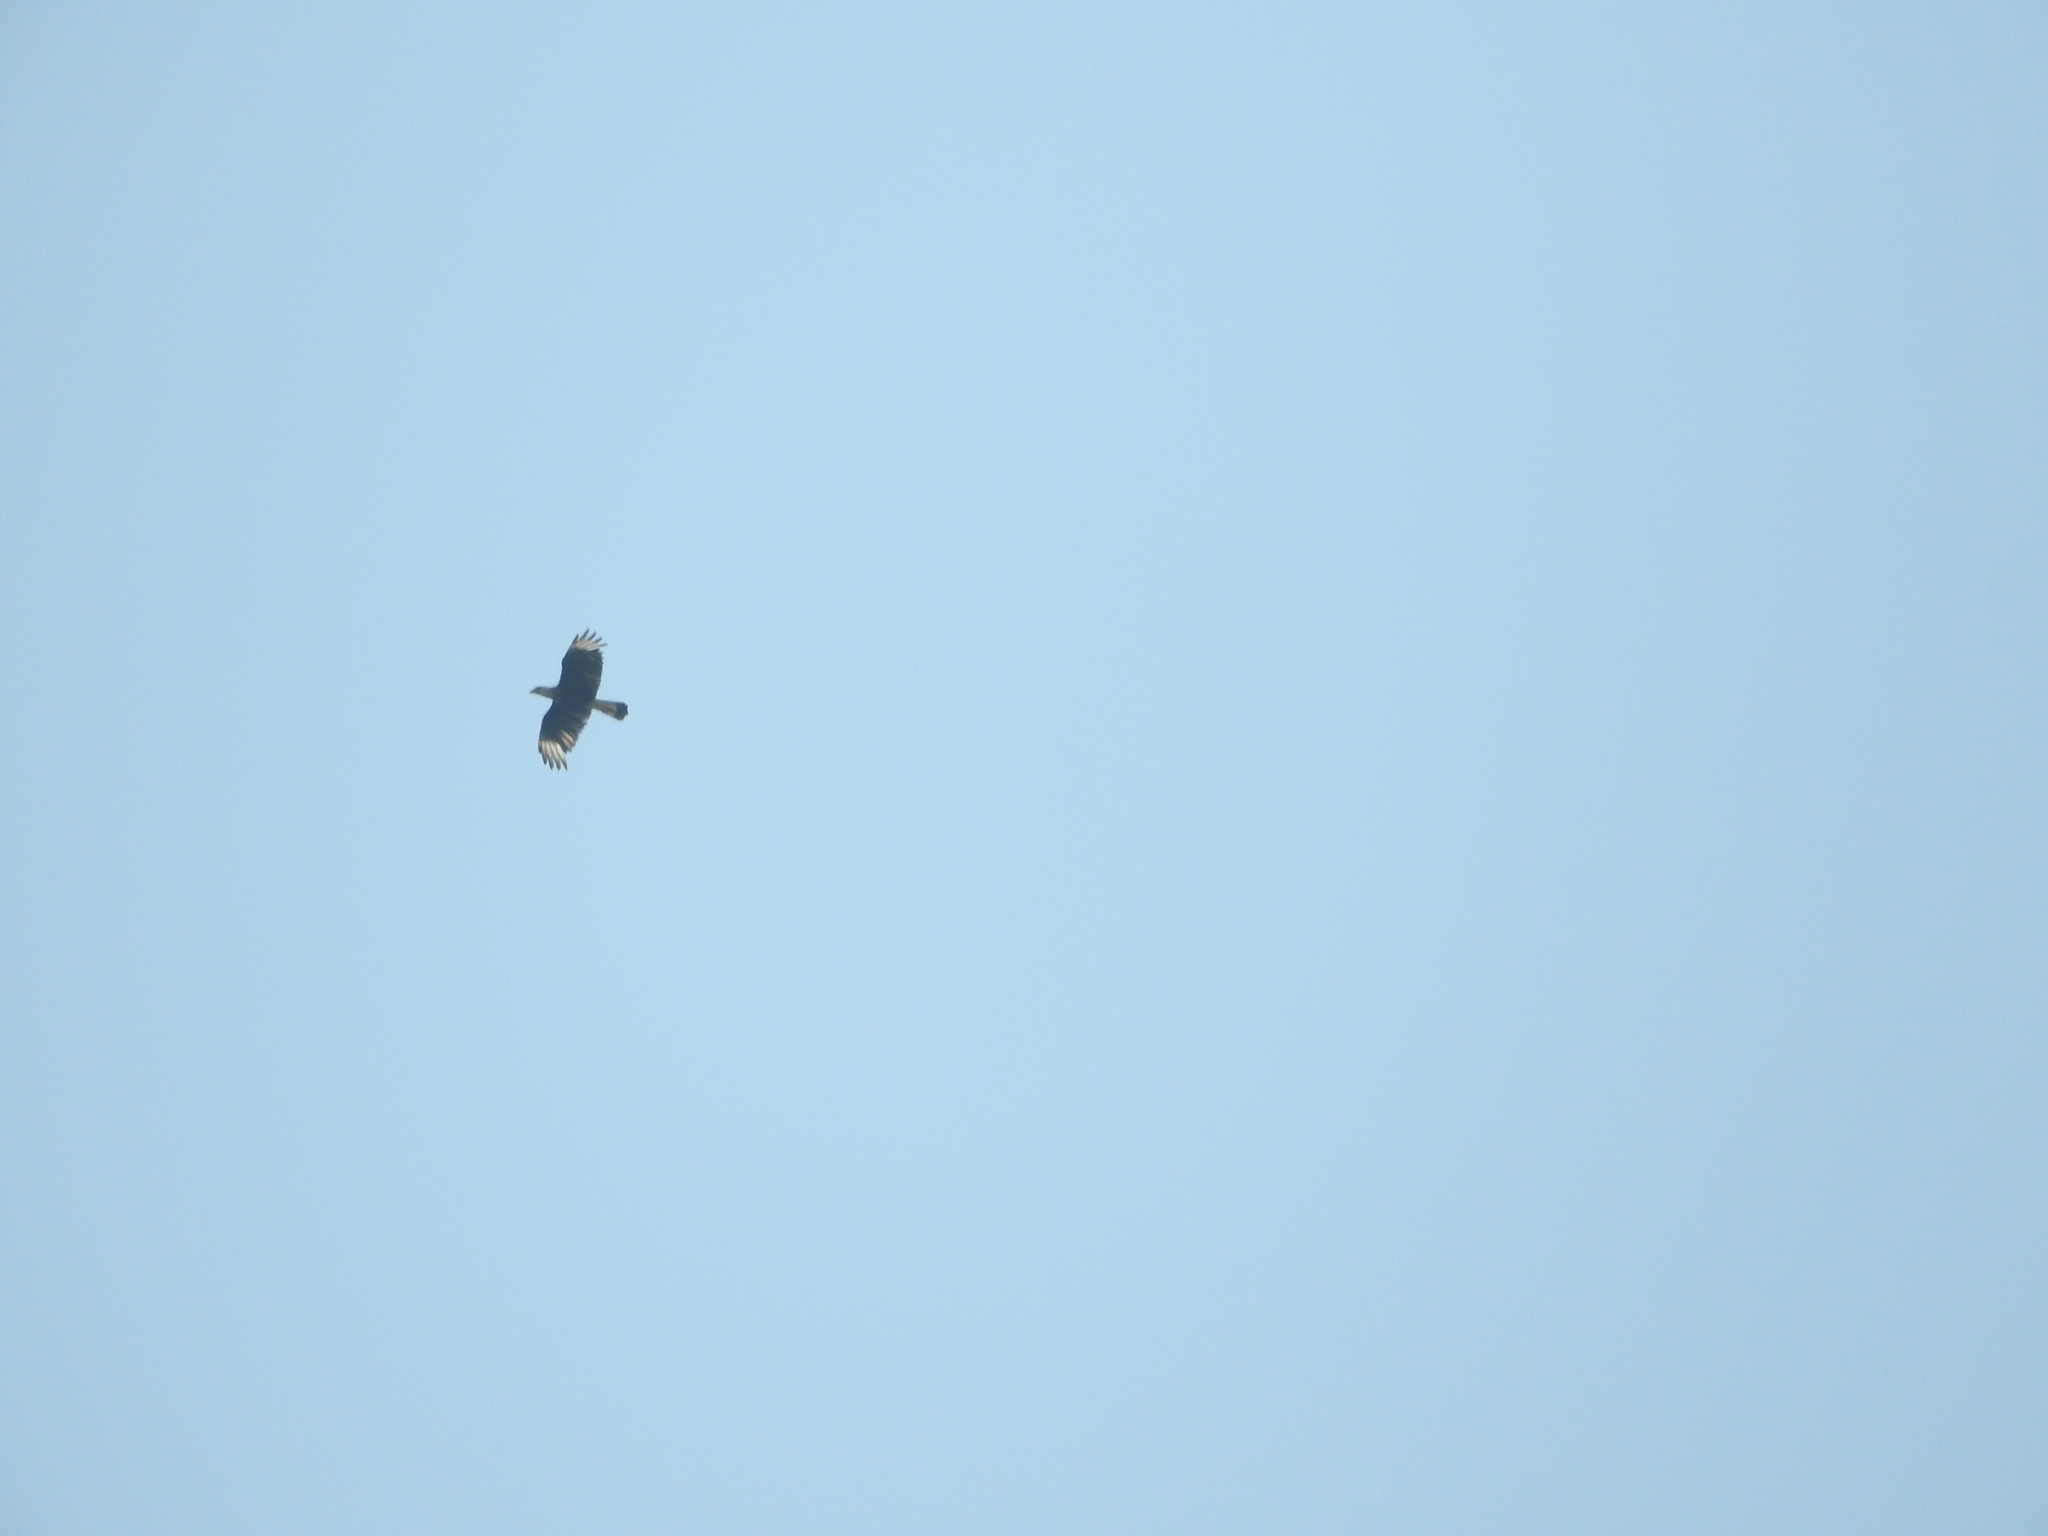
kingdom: Animalia
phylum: Chordata
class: Aves
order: Falconiformes
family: Falconidae
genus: Caracara
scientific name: Caracara plancus
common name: Southern caracara
